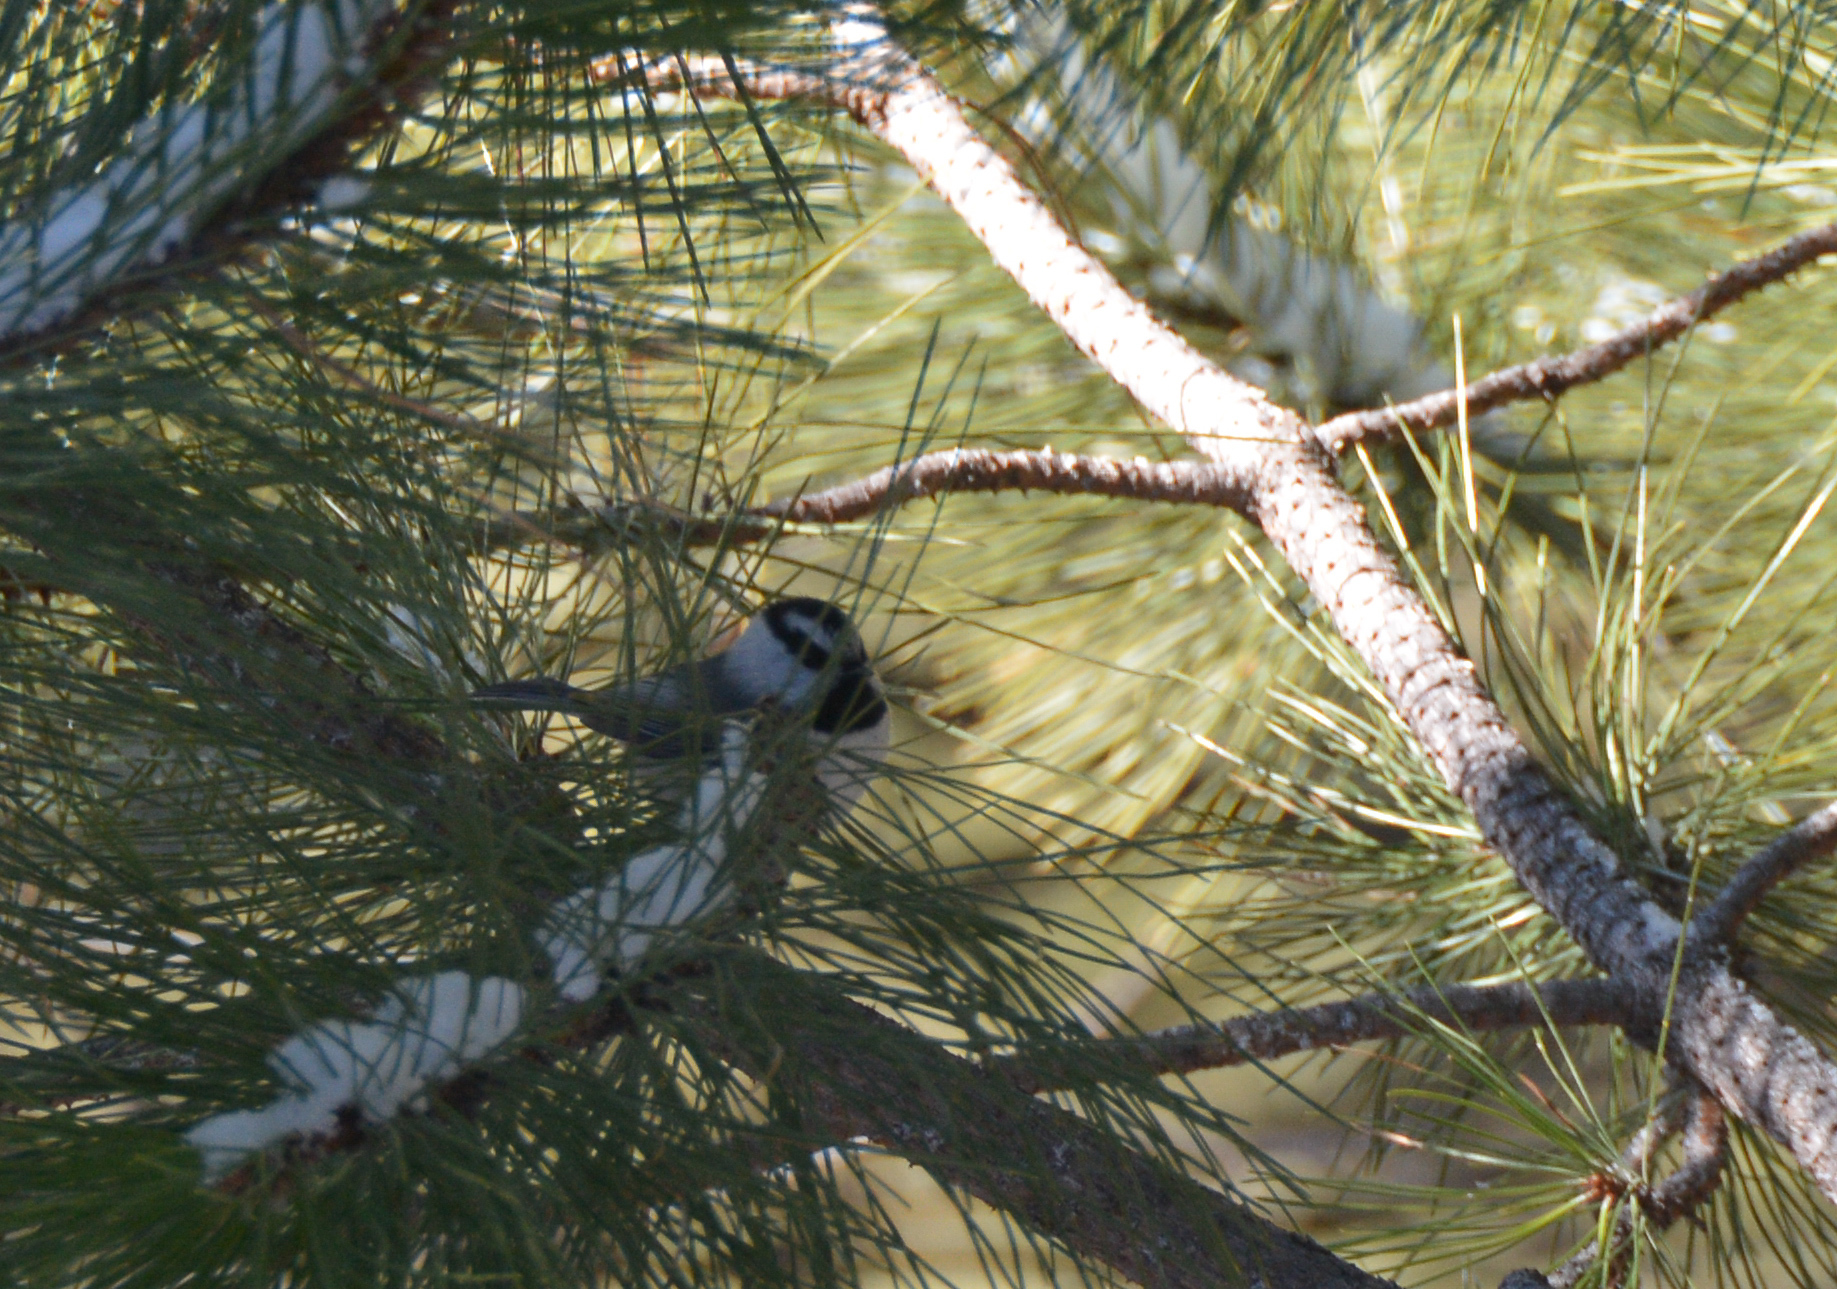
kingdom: Animalia
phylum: Chordata
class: Aves
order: Passeriformes
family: Paridae
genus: Poecile
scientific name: Poecile gambeli
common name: Mountain chickadee
